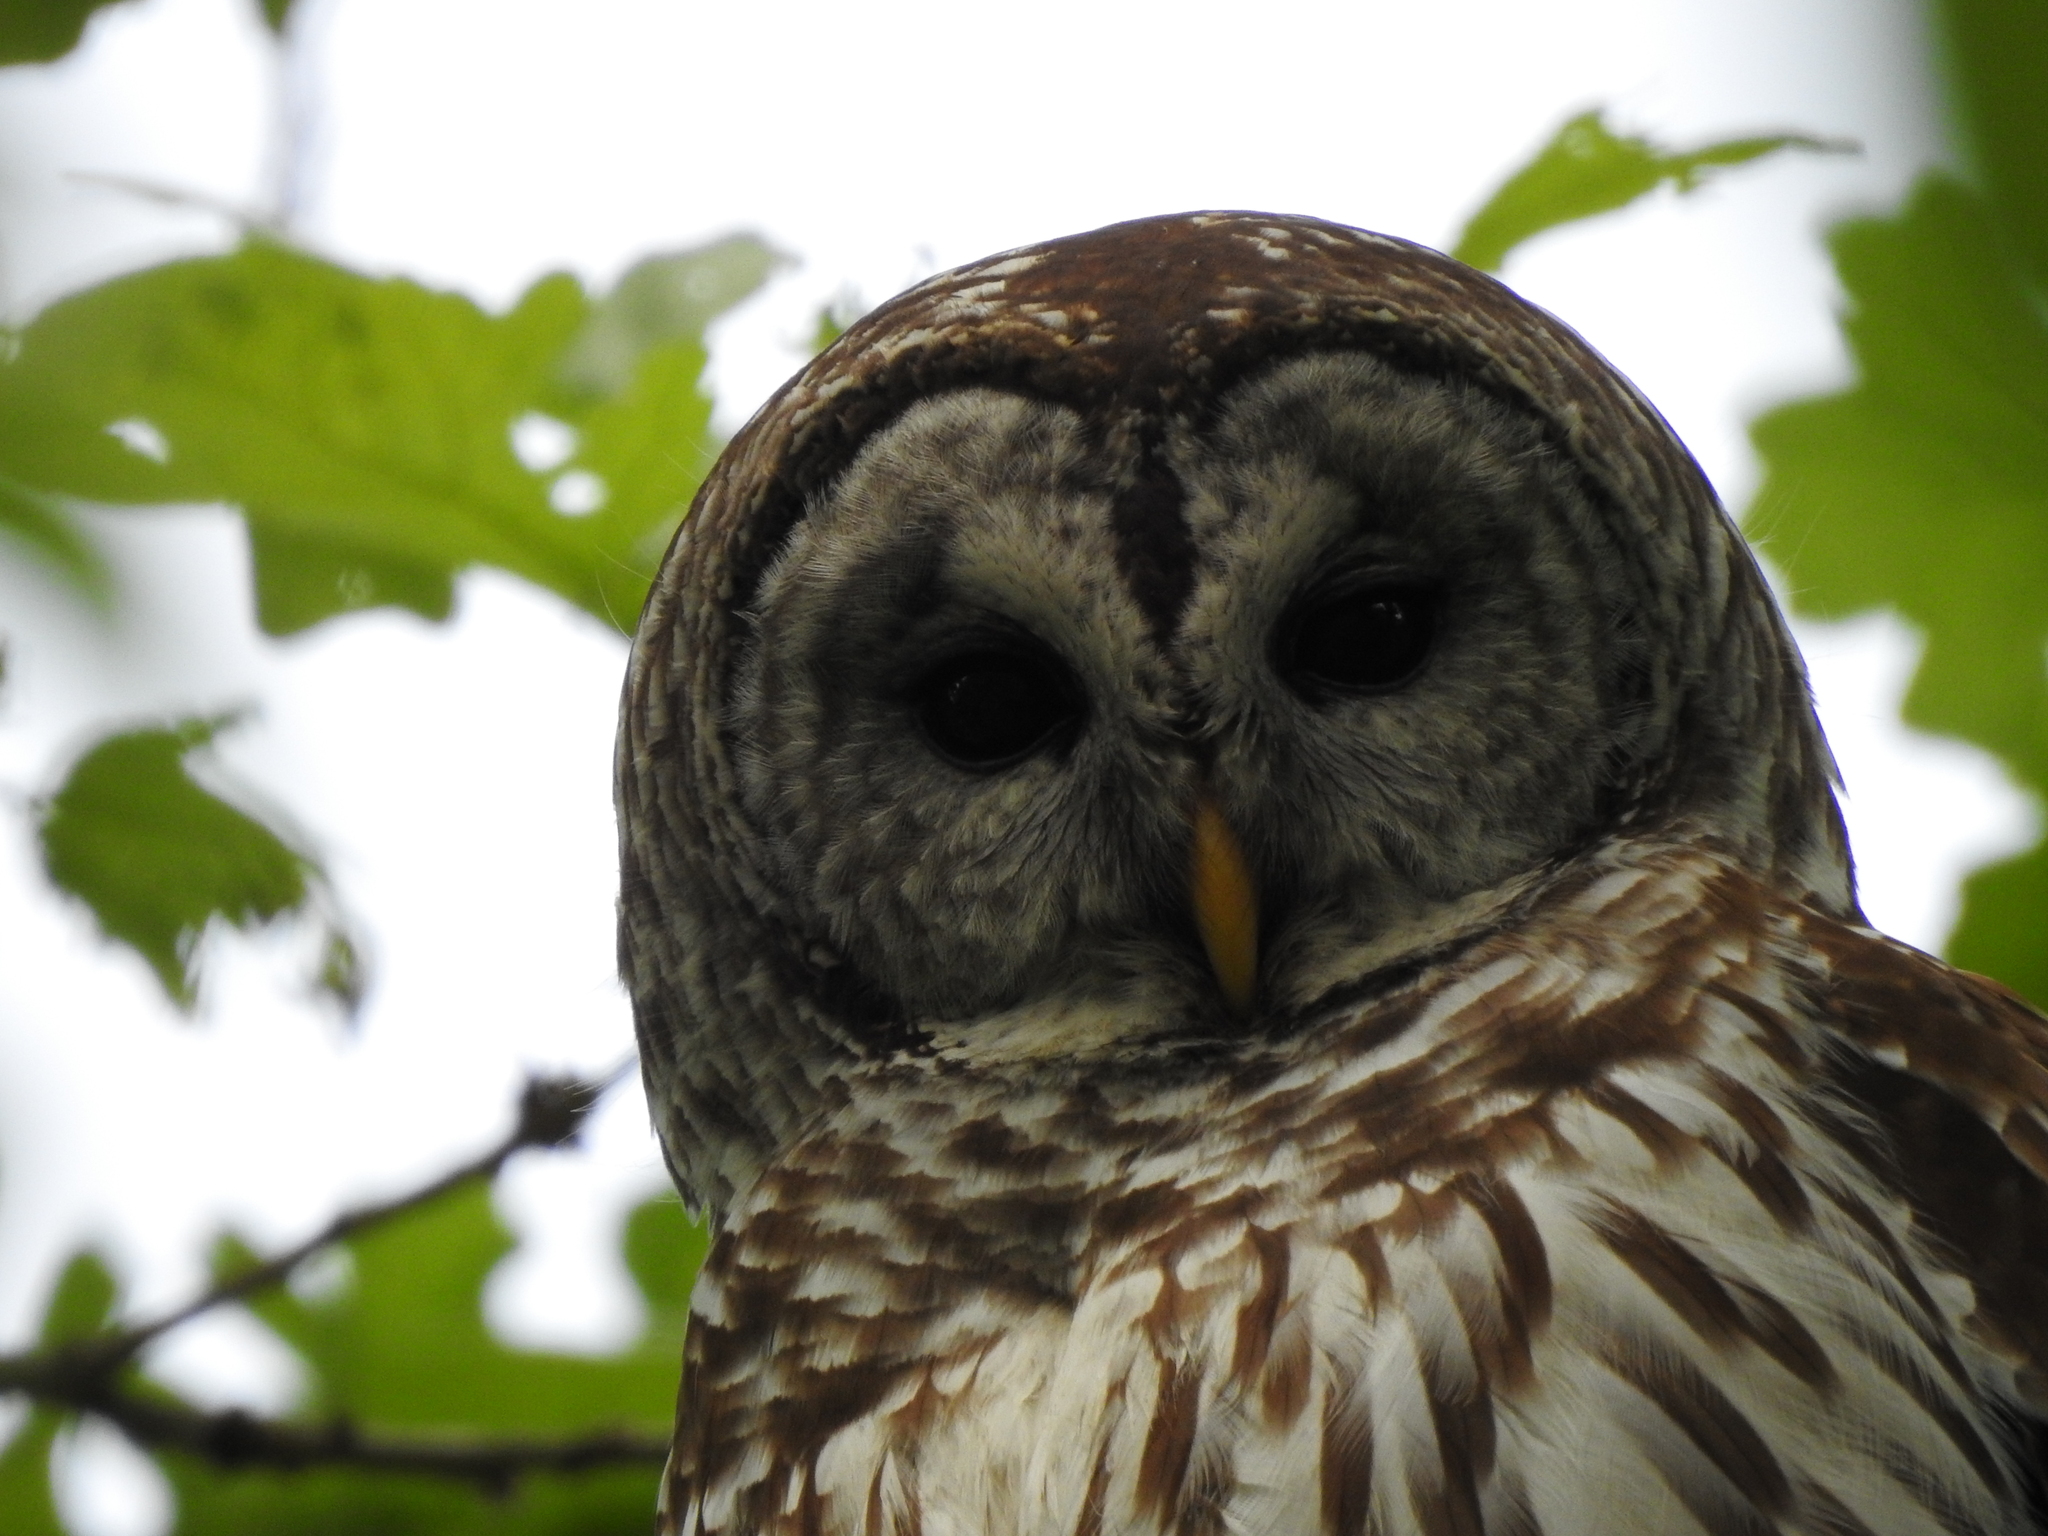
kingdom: Animalia
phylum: Chordata
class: Aves
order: Strigiformes
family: Strigidae
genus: Strix
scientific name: Strix varia
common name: Barred owl
